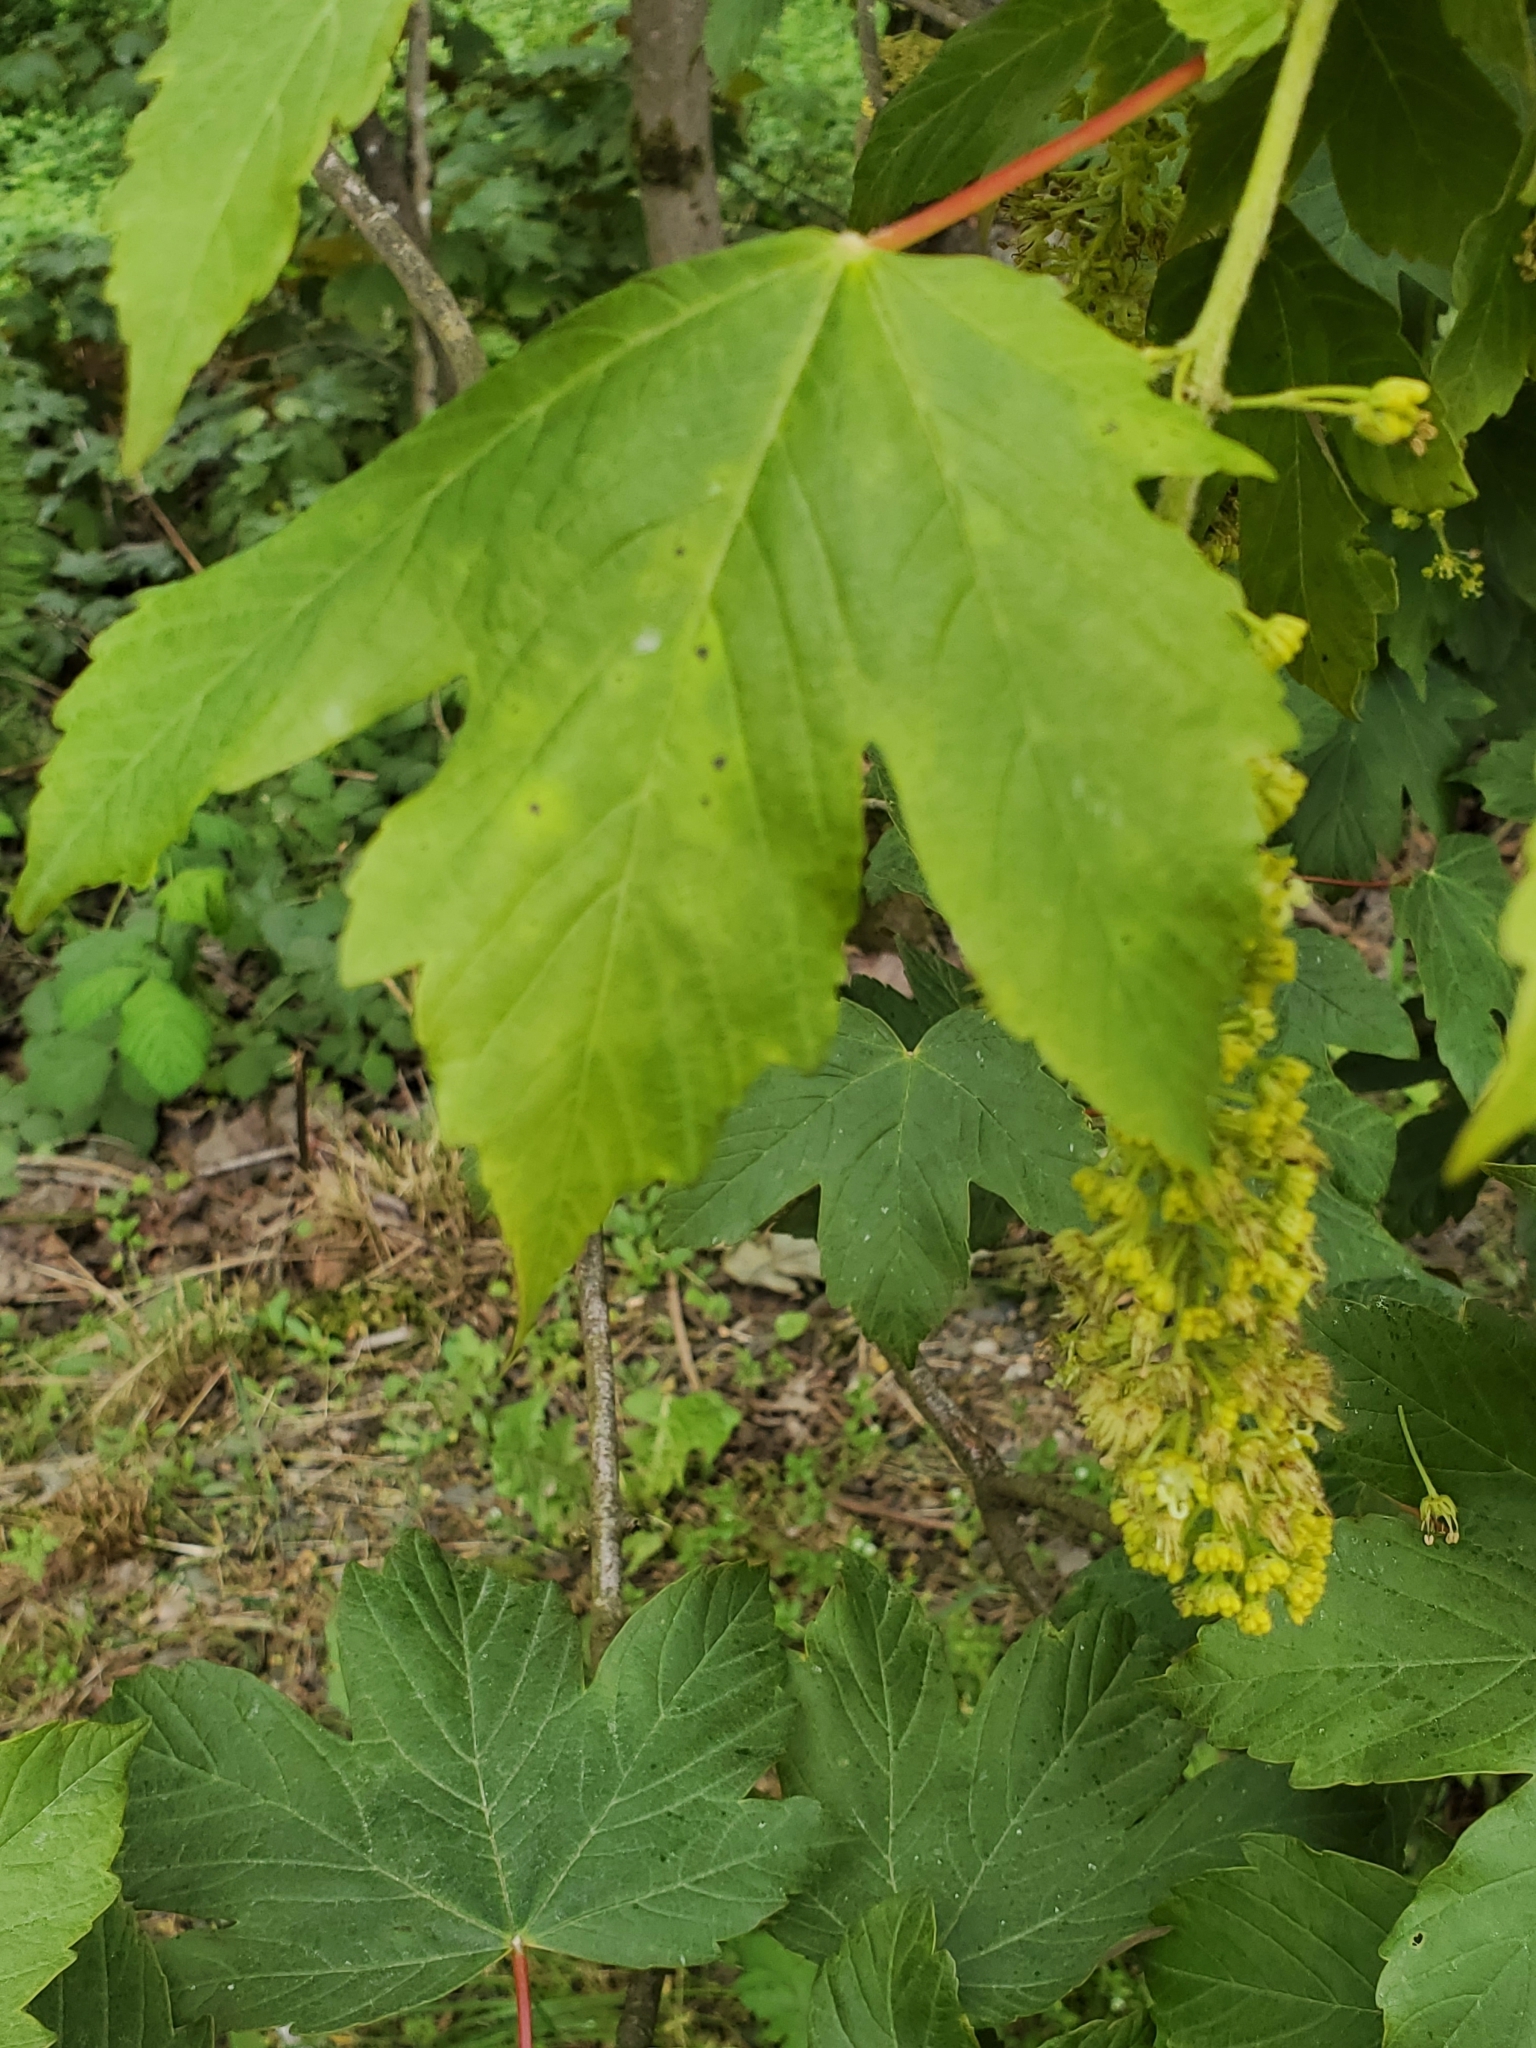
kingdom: Plantae
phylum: Tracheophyta
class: Magnoliopsida
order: Sapindales
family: Sapindaceae
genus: Acer
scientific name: Acer pseudoplatanus
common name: Sycamore
